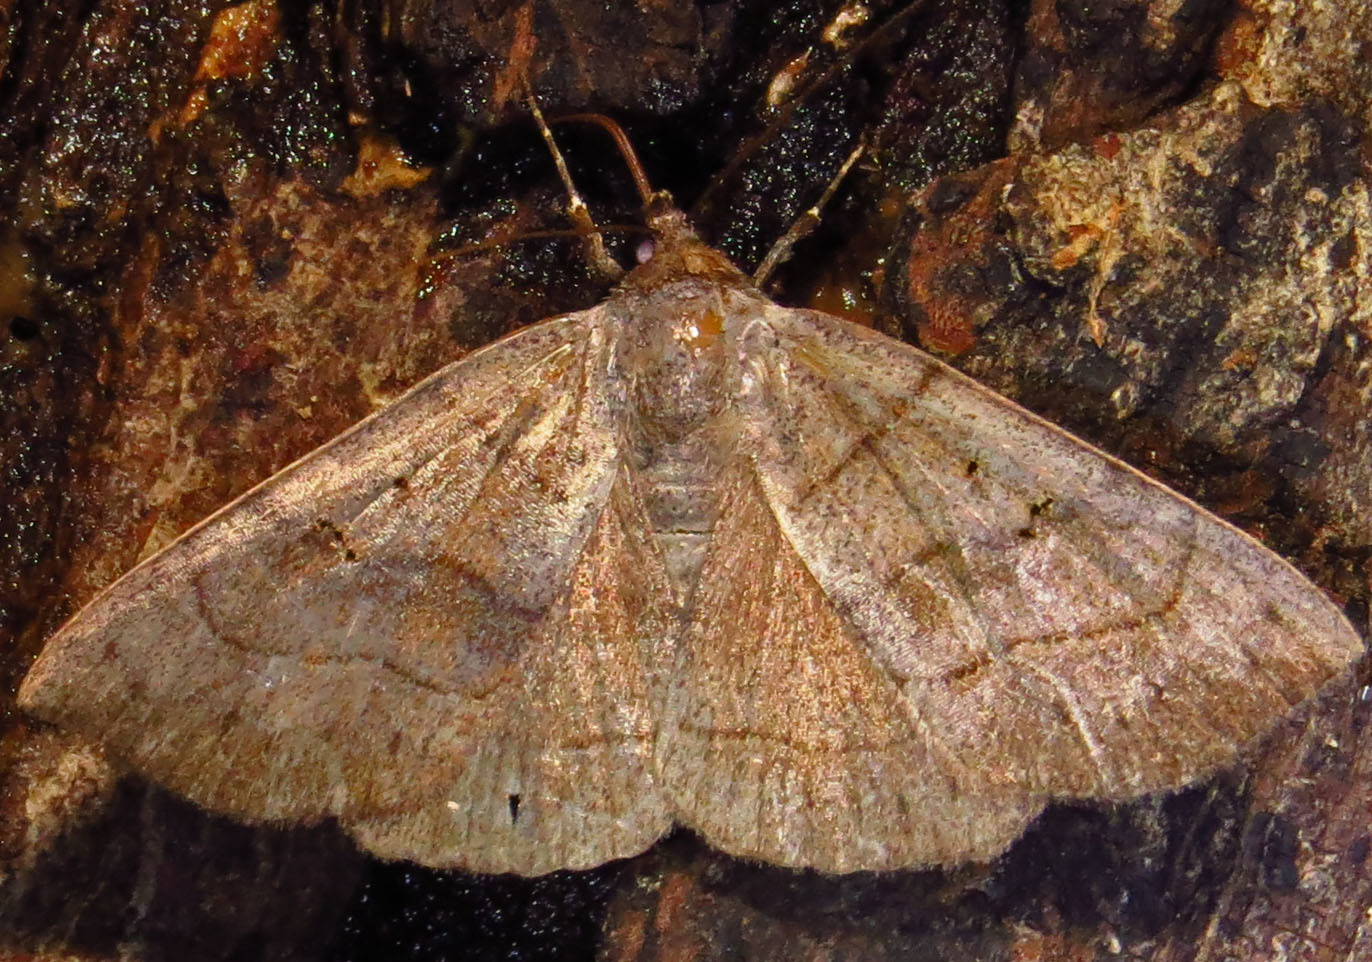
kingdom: Animalia
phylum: Arthropoda
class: Insecta
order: Lepidoptera
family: Erebidae
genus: Panopoda
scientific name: Panopoda carneicosta
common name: Brown panopoda moth
